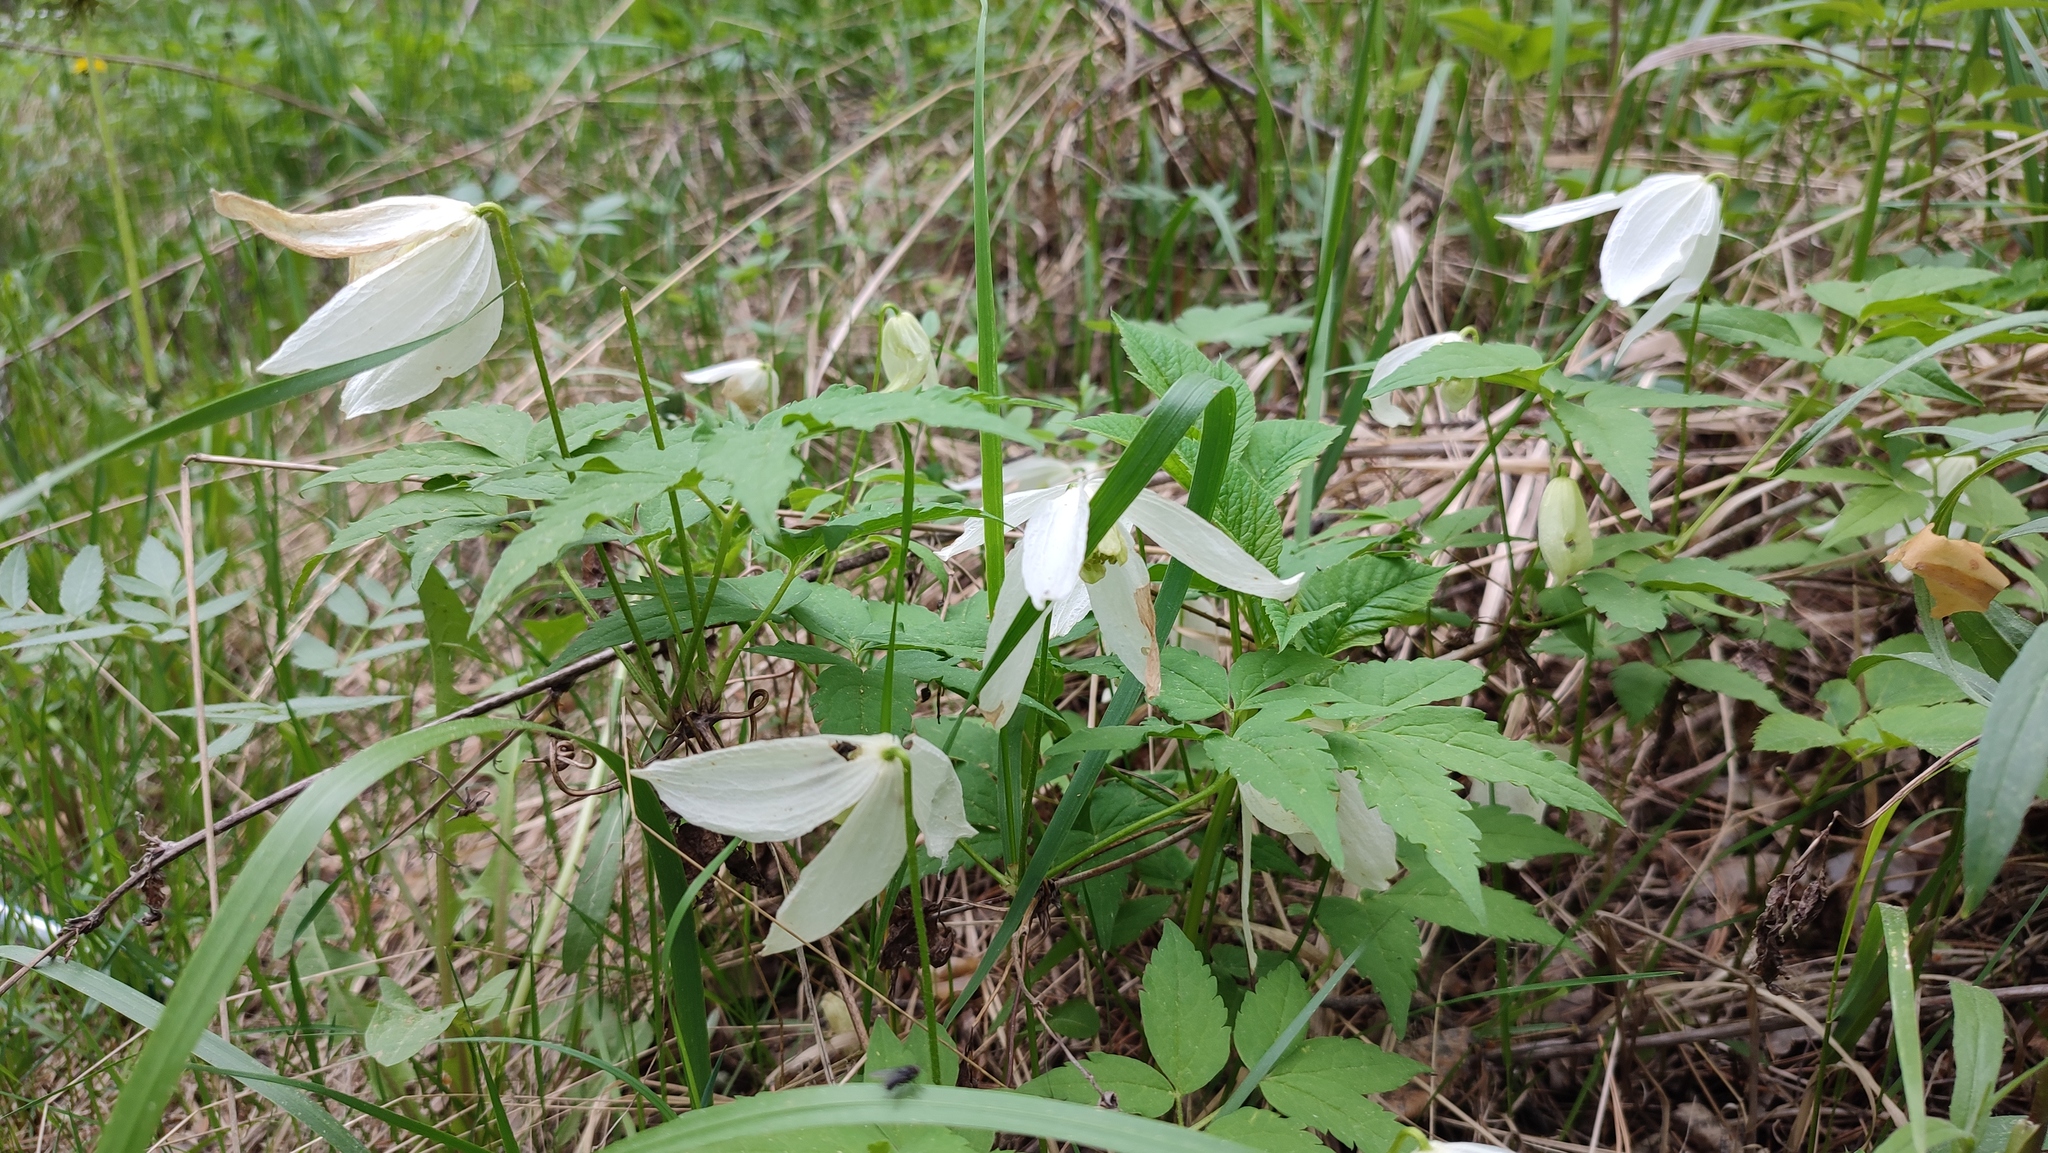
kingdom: Plantae
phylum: Tracheophyta
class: Magnoliopsida
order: Ranunculales
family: Ranunculaceae
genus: Clematis
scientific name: Clematis sibirica
